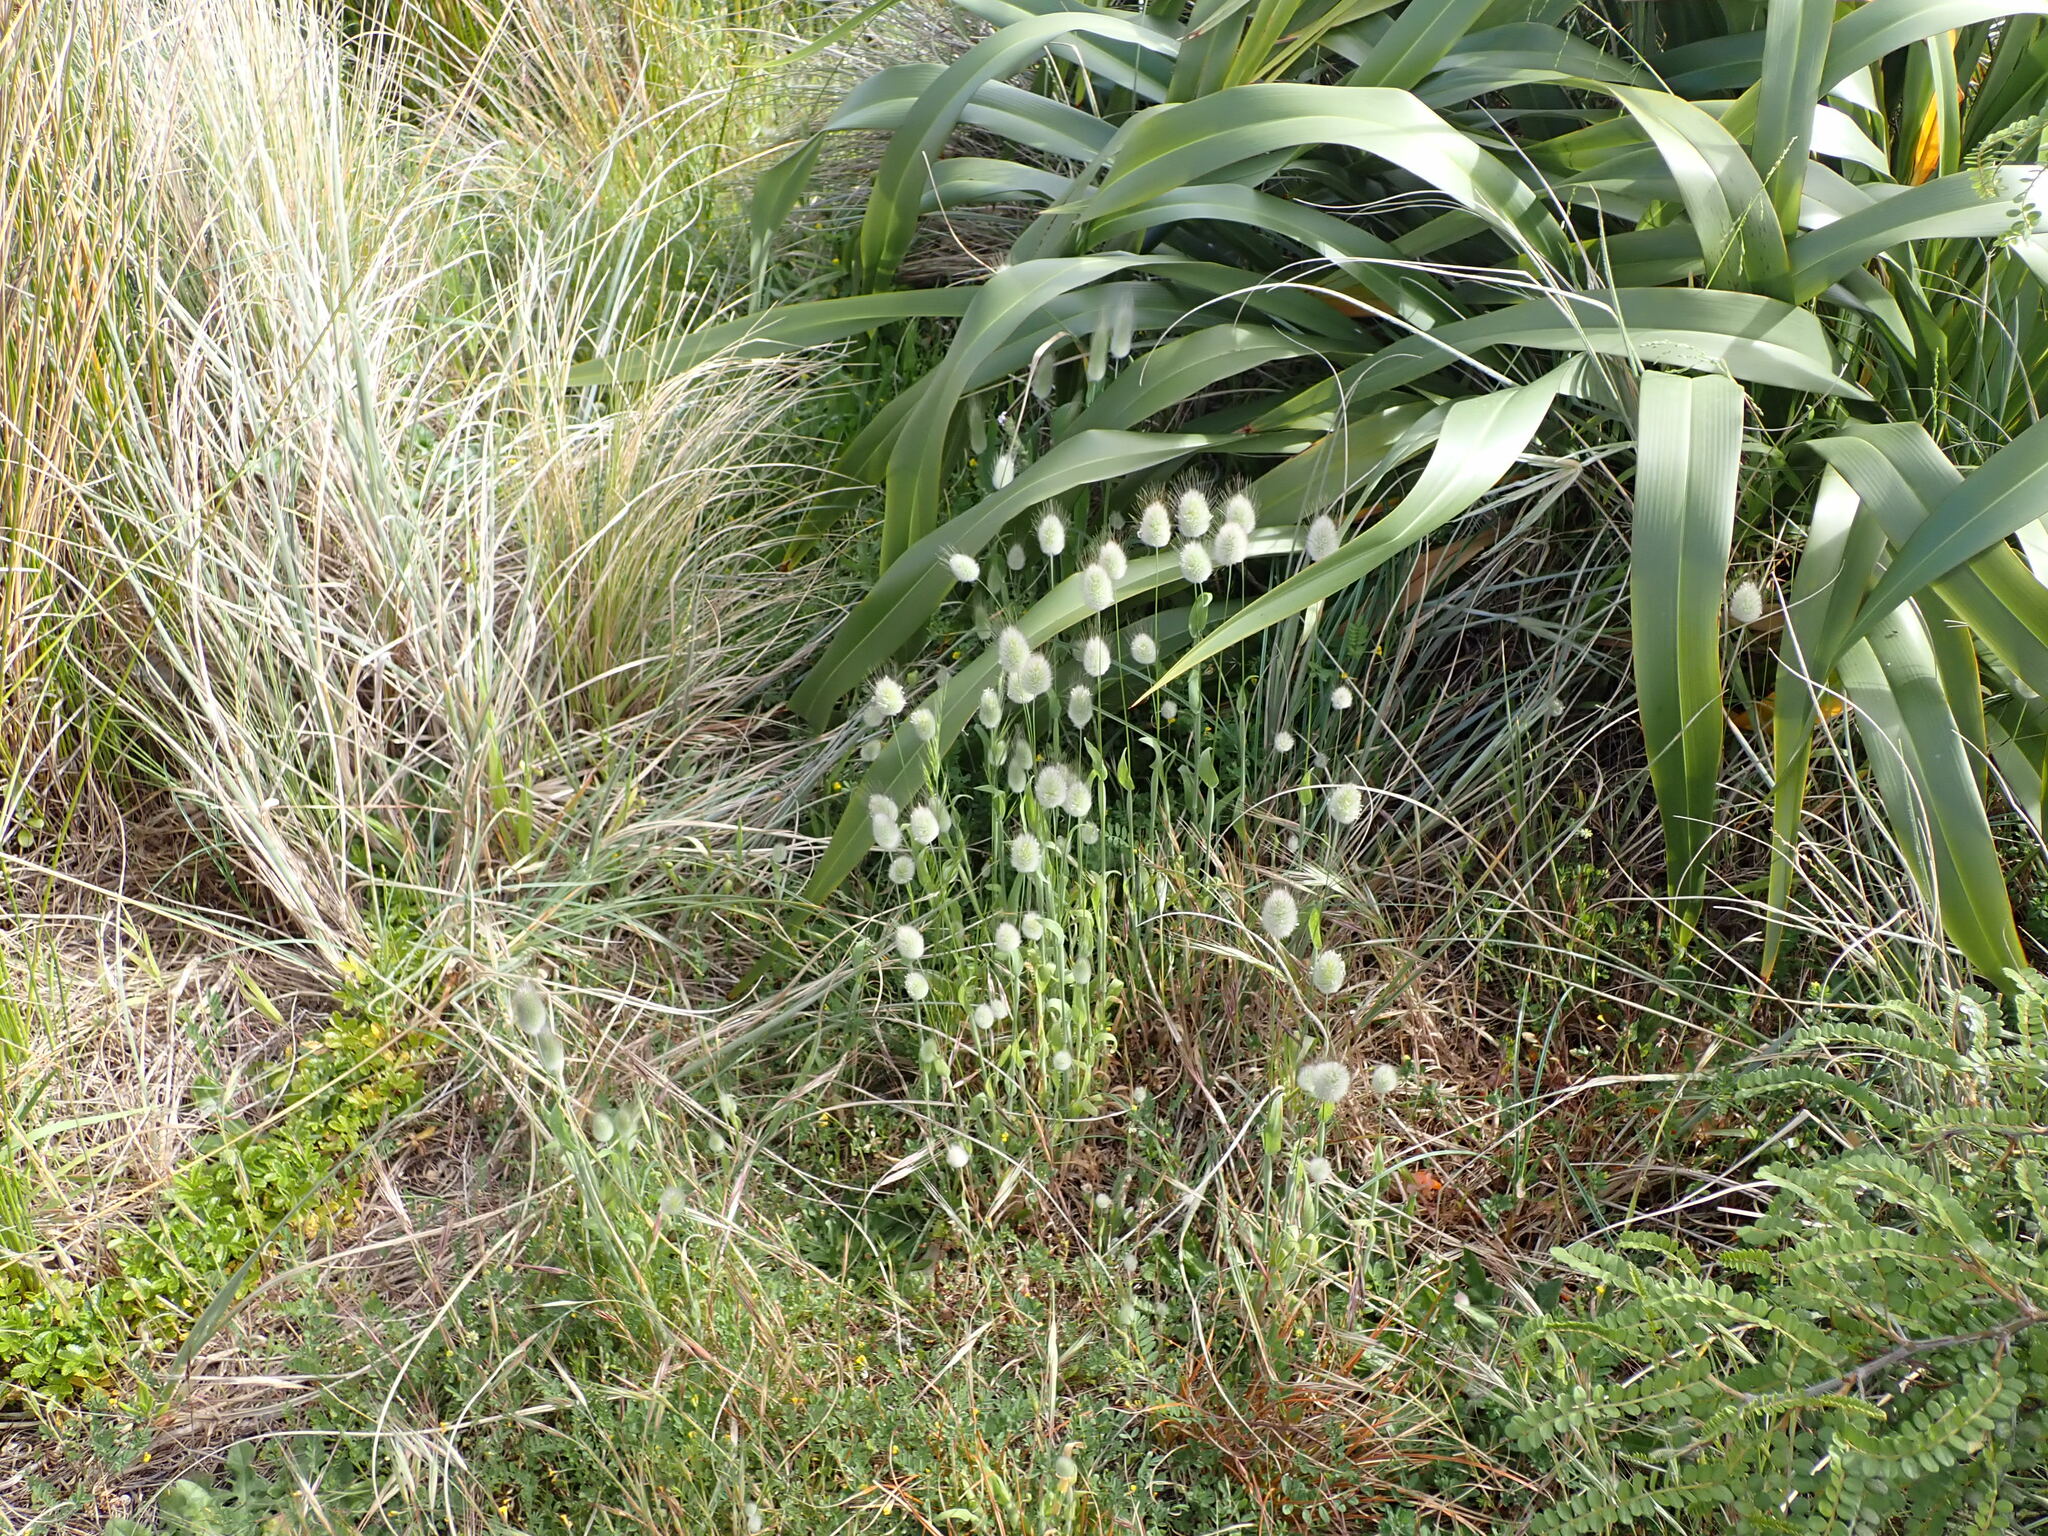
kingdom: Plantae
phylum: Tracheophyta
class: Liliopsida
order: Poales
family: Poaceae
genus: Lagurus
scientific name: Lagurus ovatus
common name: Hare's-tail
